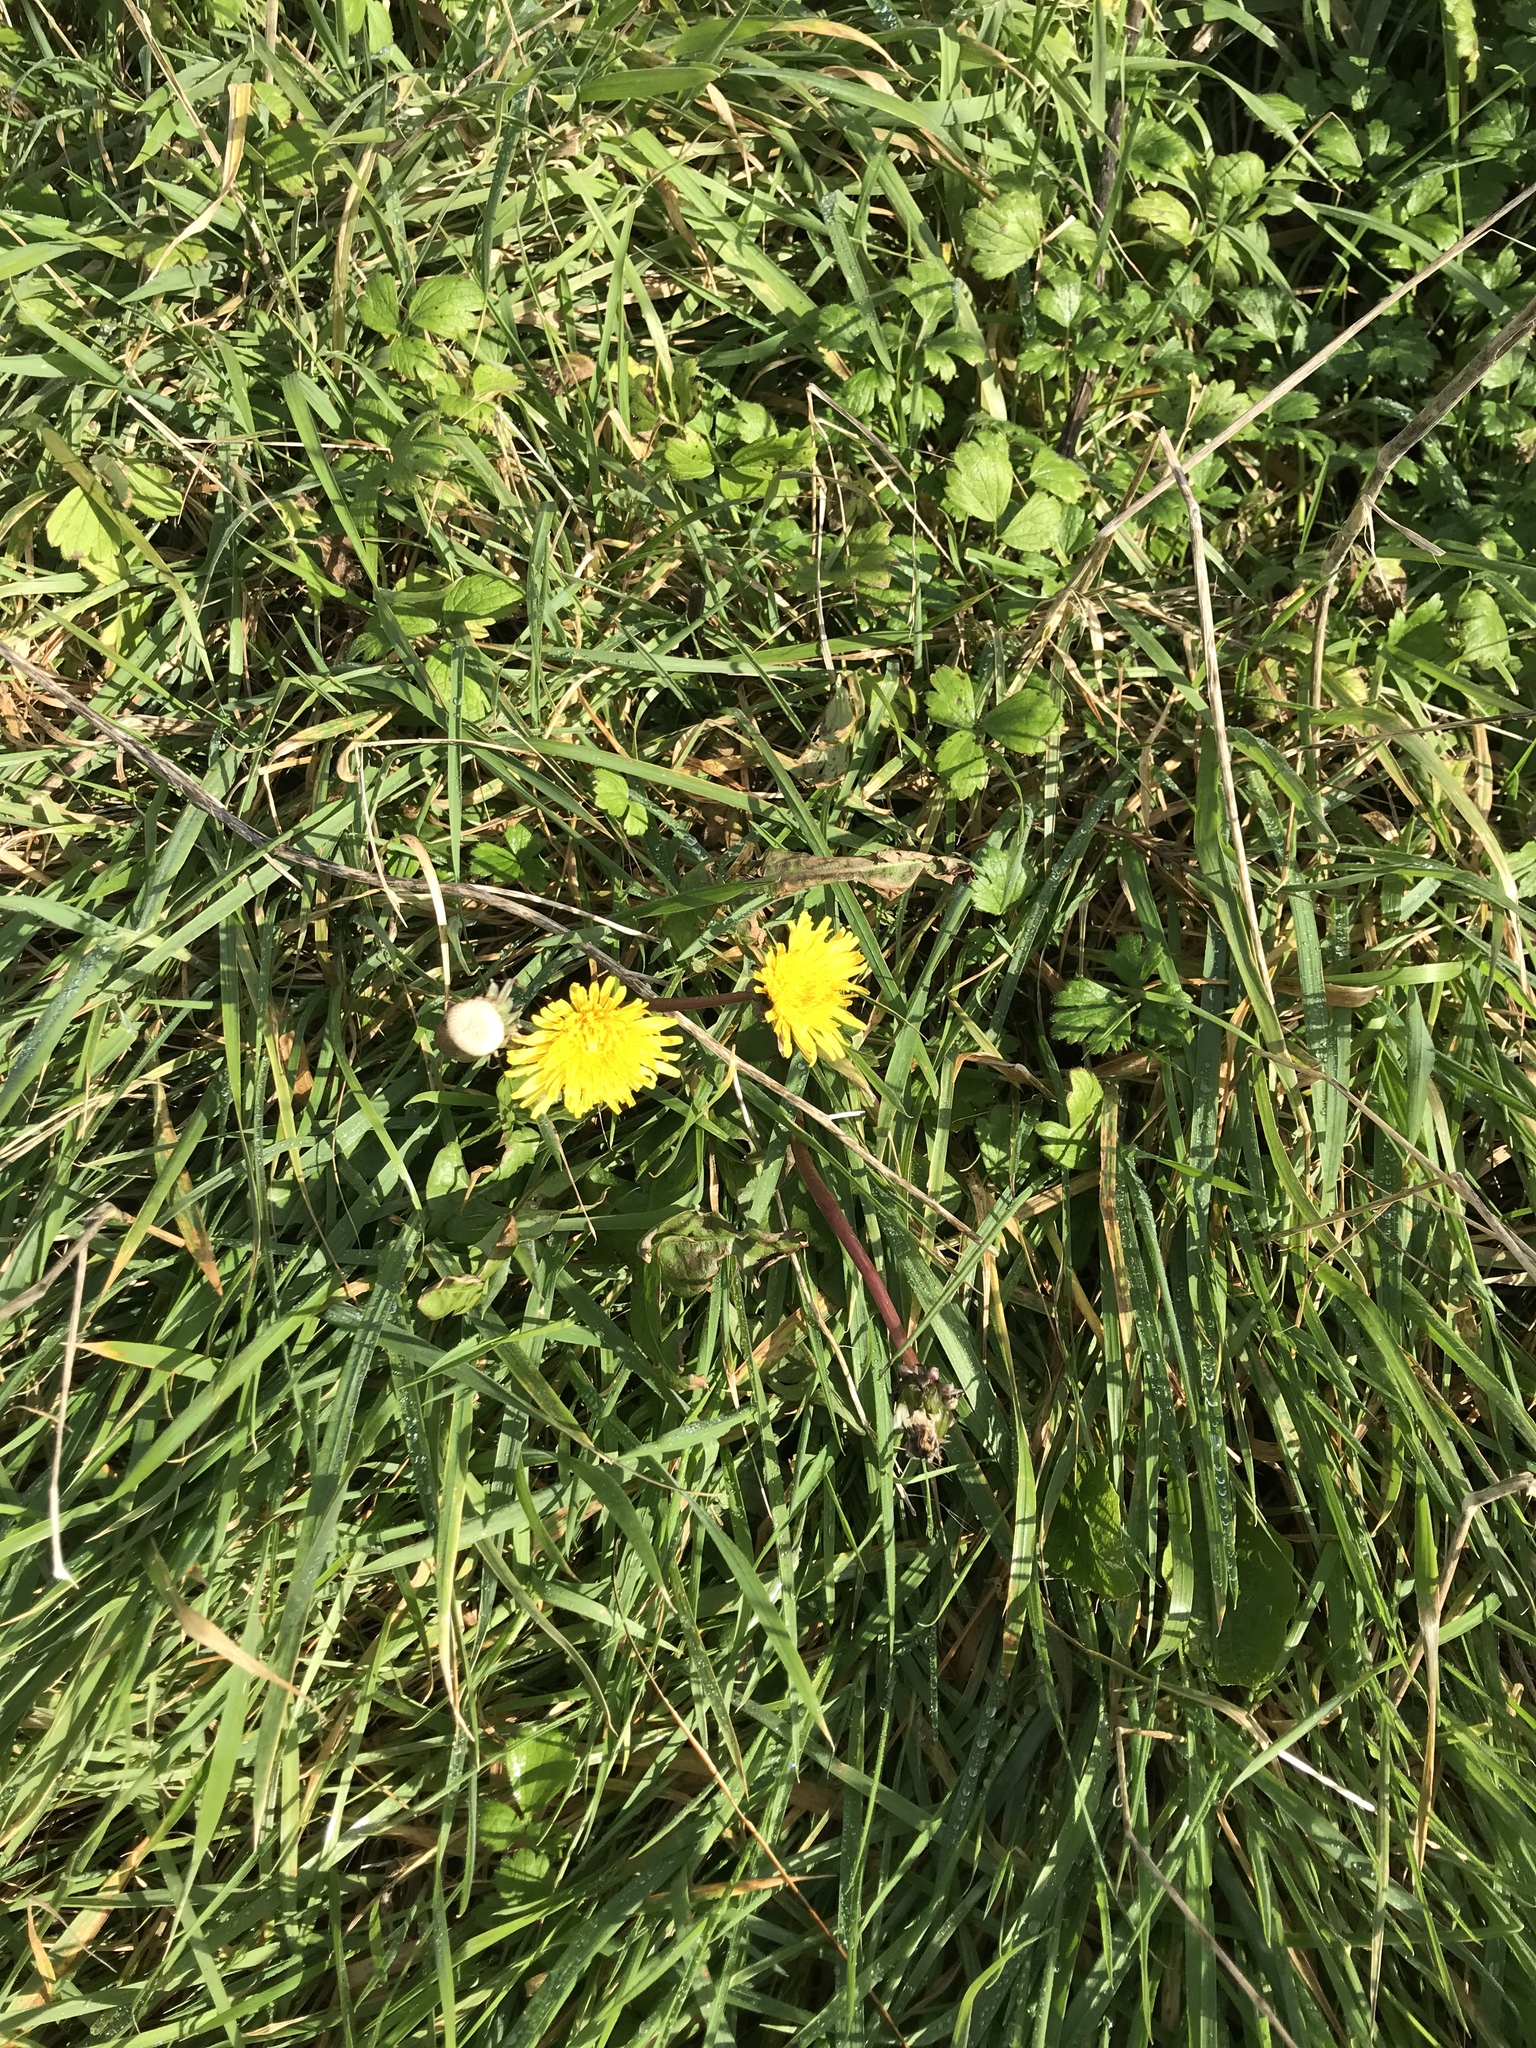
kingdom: Plantae
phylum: Tracheophyta
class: Magnoliopsida
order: Asterales
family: Asteraceae
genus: Taraxacum
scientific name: Taraxacum officinale
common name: Common dandelion
